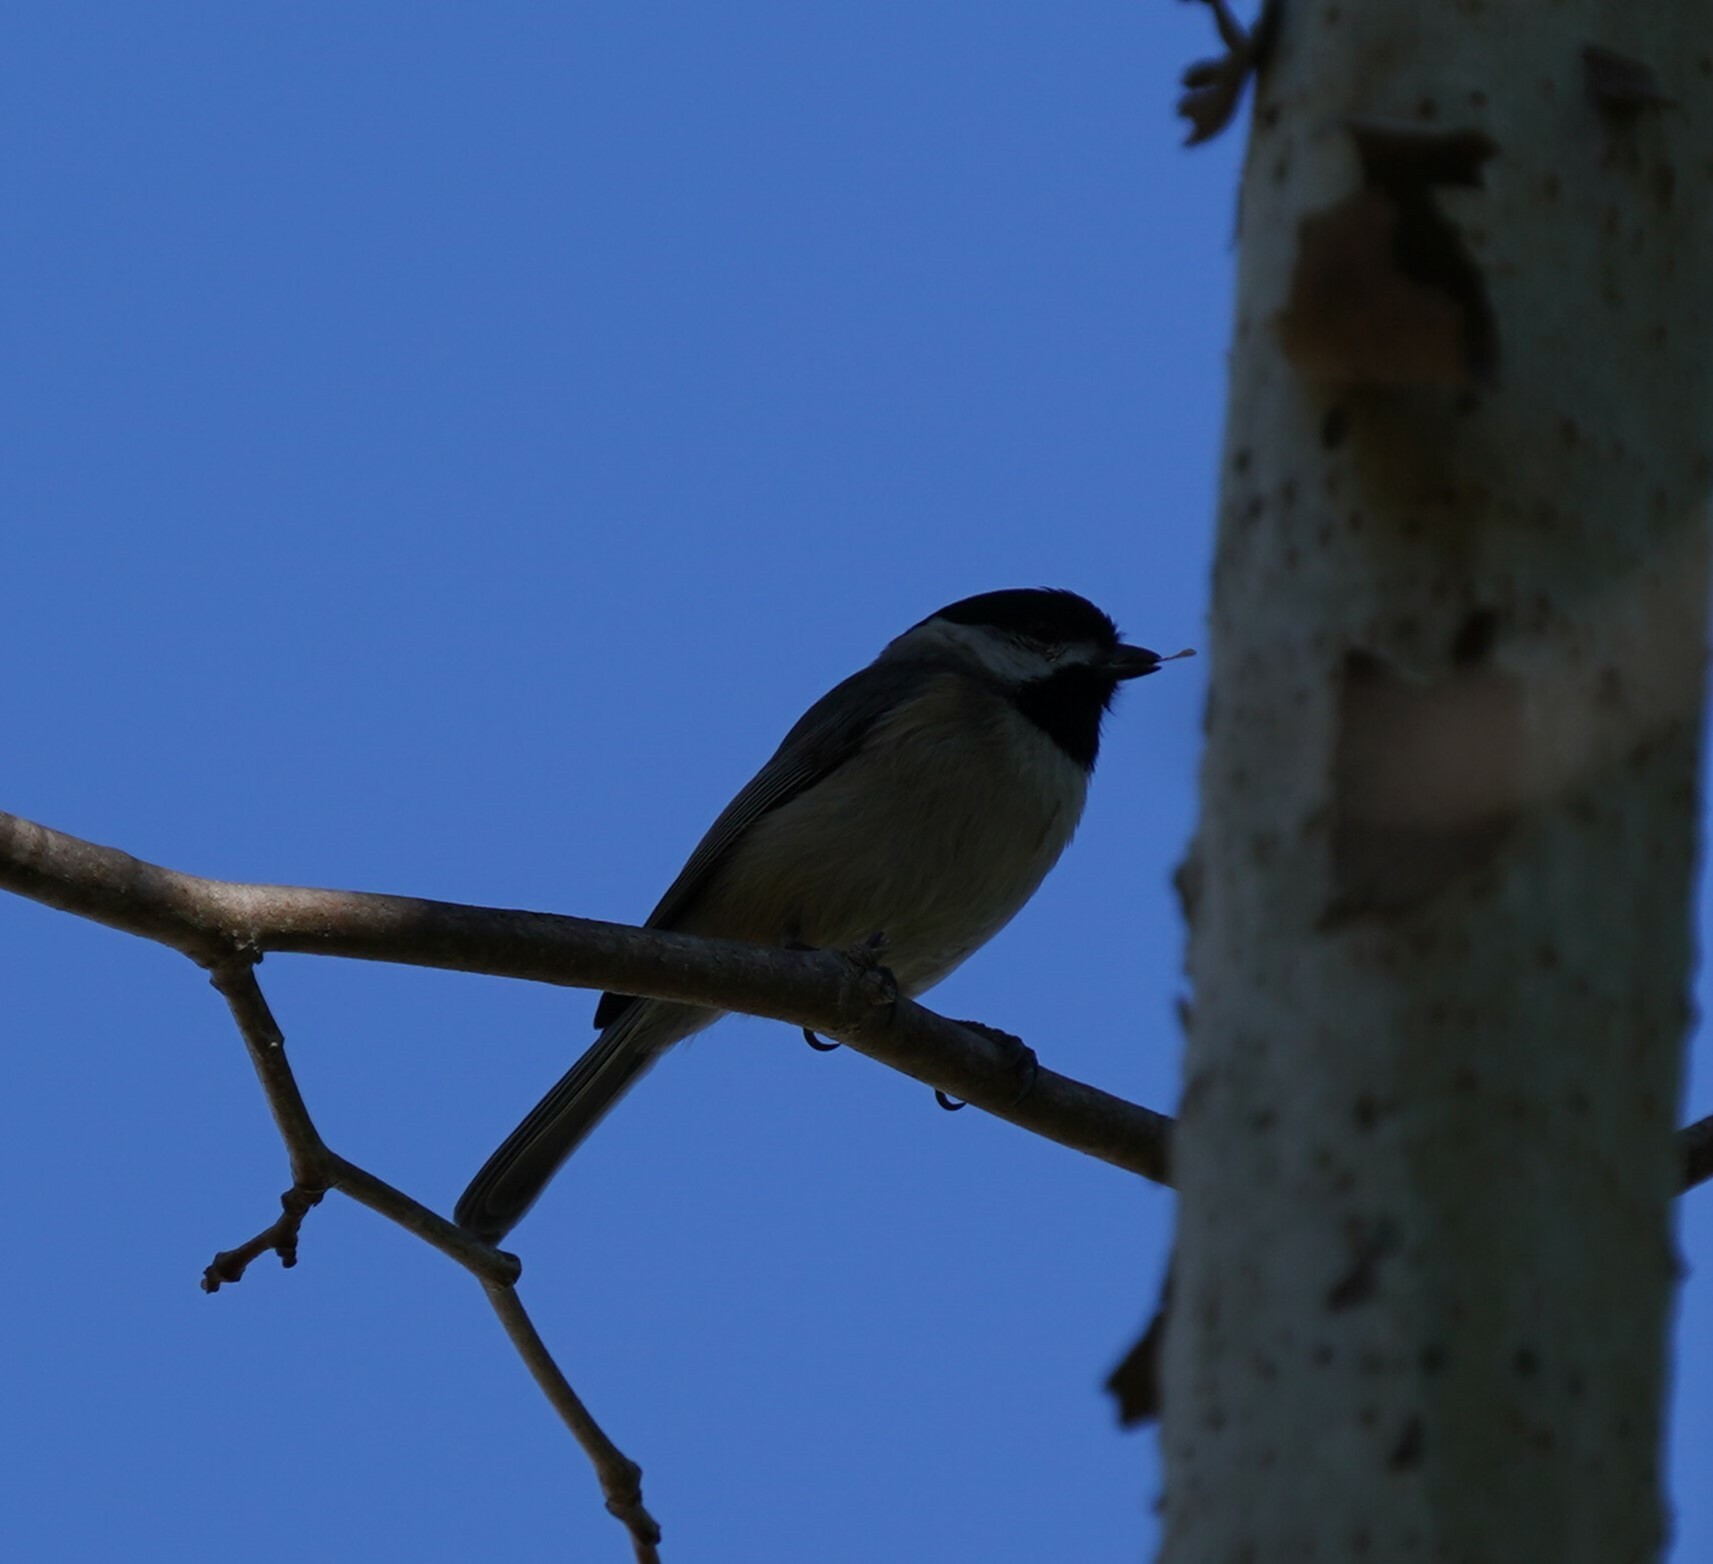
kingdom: Animalia
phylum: Chordata
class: Aves
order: Passeriformes
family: Paridae
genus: Poecile
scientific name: Poecile carolinensis
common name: Carolina chickadee
